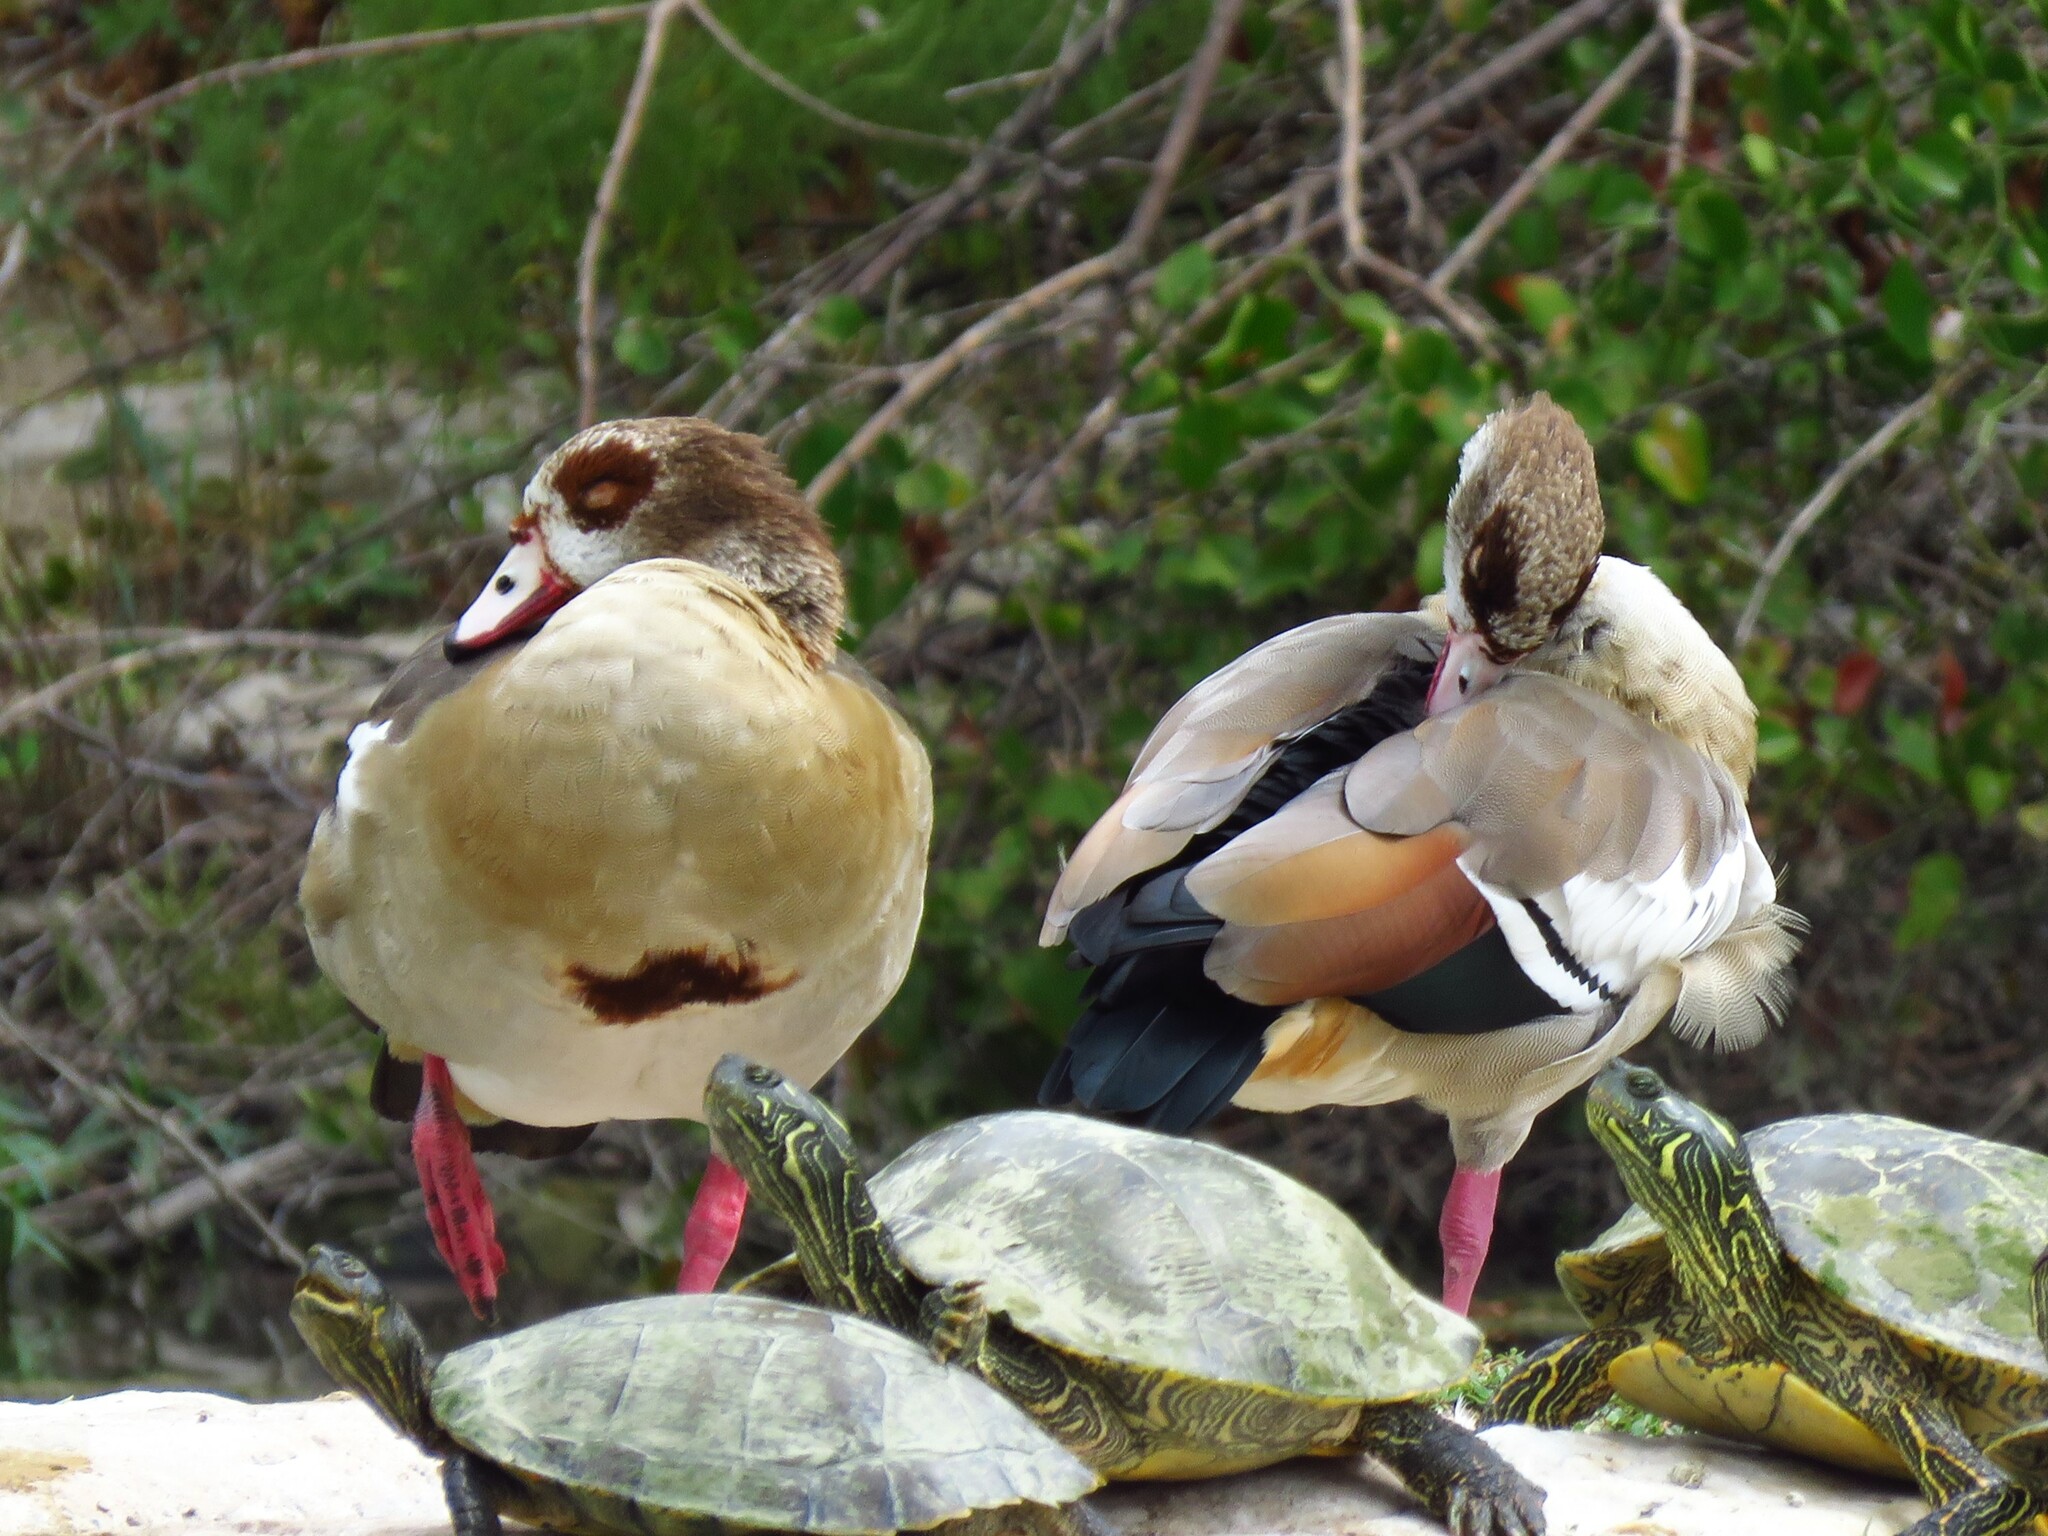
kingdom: Animalia
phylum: Chordata
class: Aves
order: Anseriformes
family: Anatidae
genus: Alopochen
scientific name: Alopochen aegyptiaca
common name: Egyptian goose
